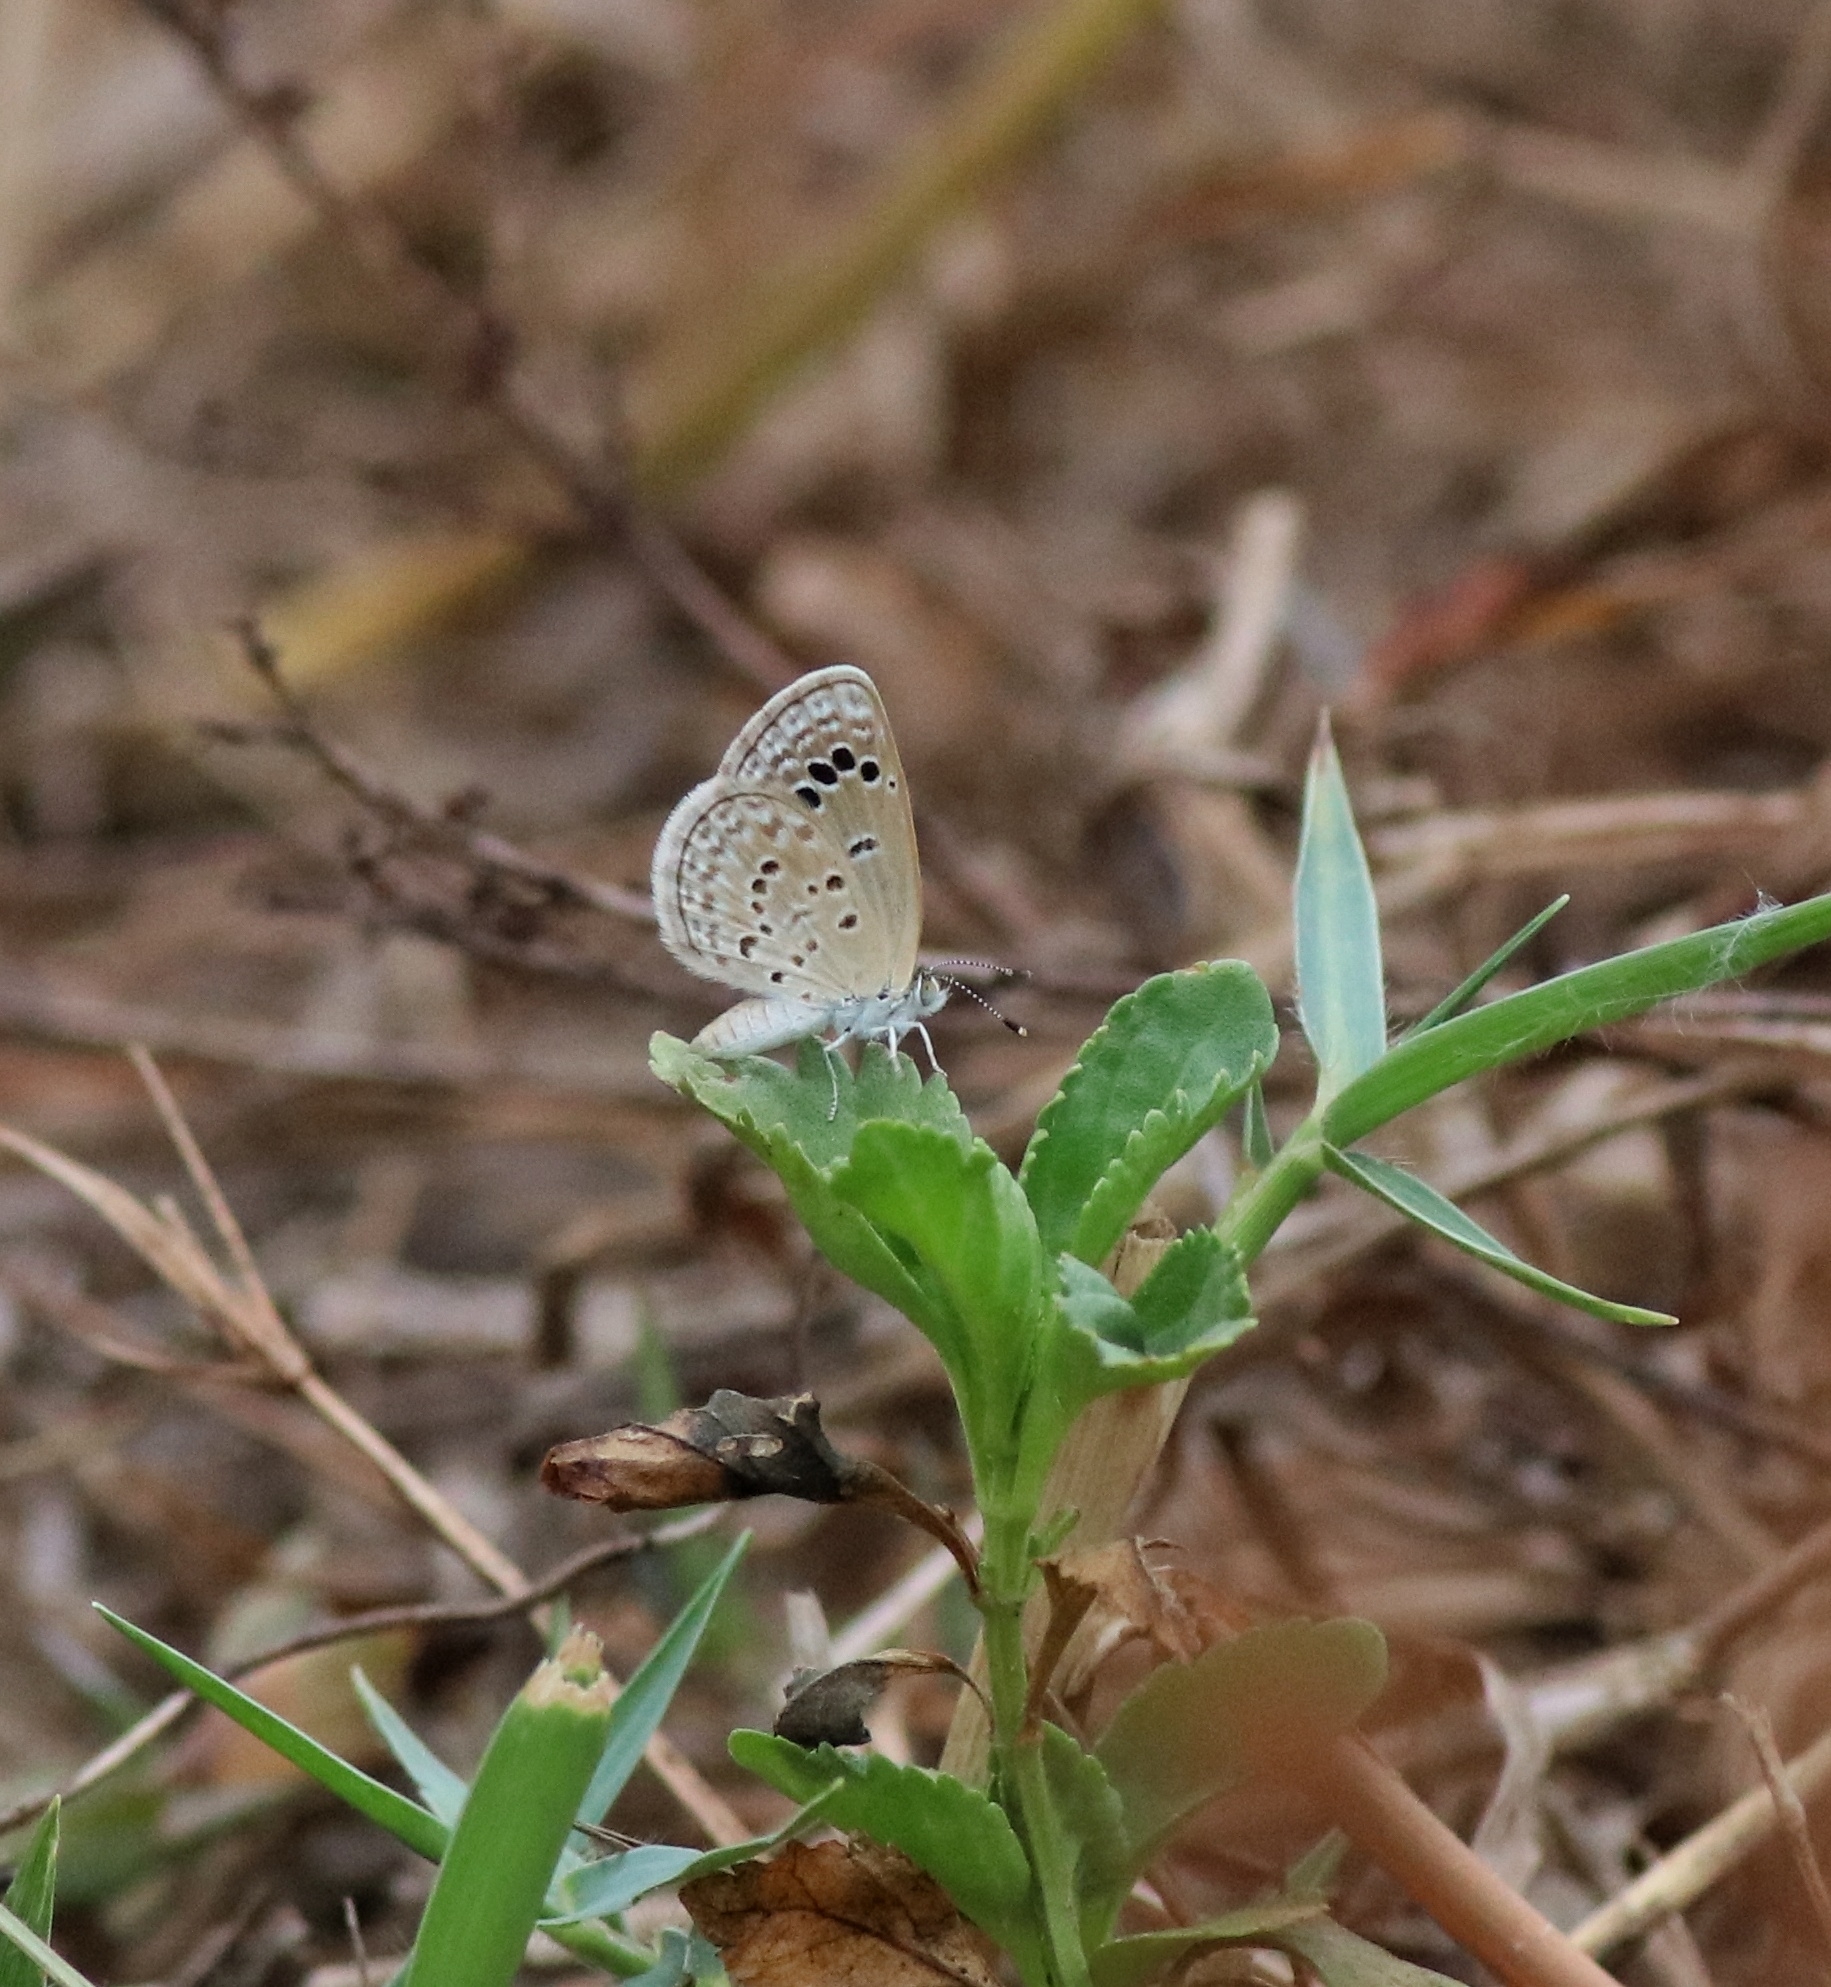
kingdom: Animalia
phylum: Arthropoda
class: Insecta
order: Lepidoptera
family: Lycaenidae
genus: Zizina
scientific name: Zizina otis
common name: Lesser grass blue
